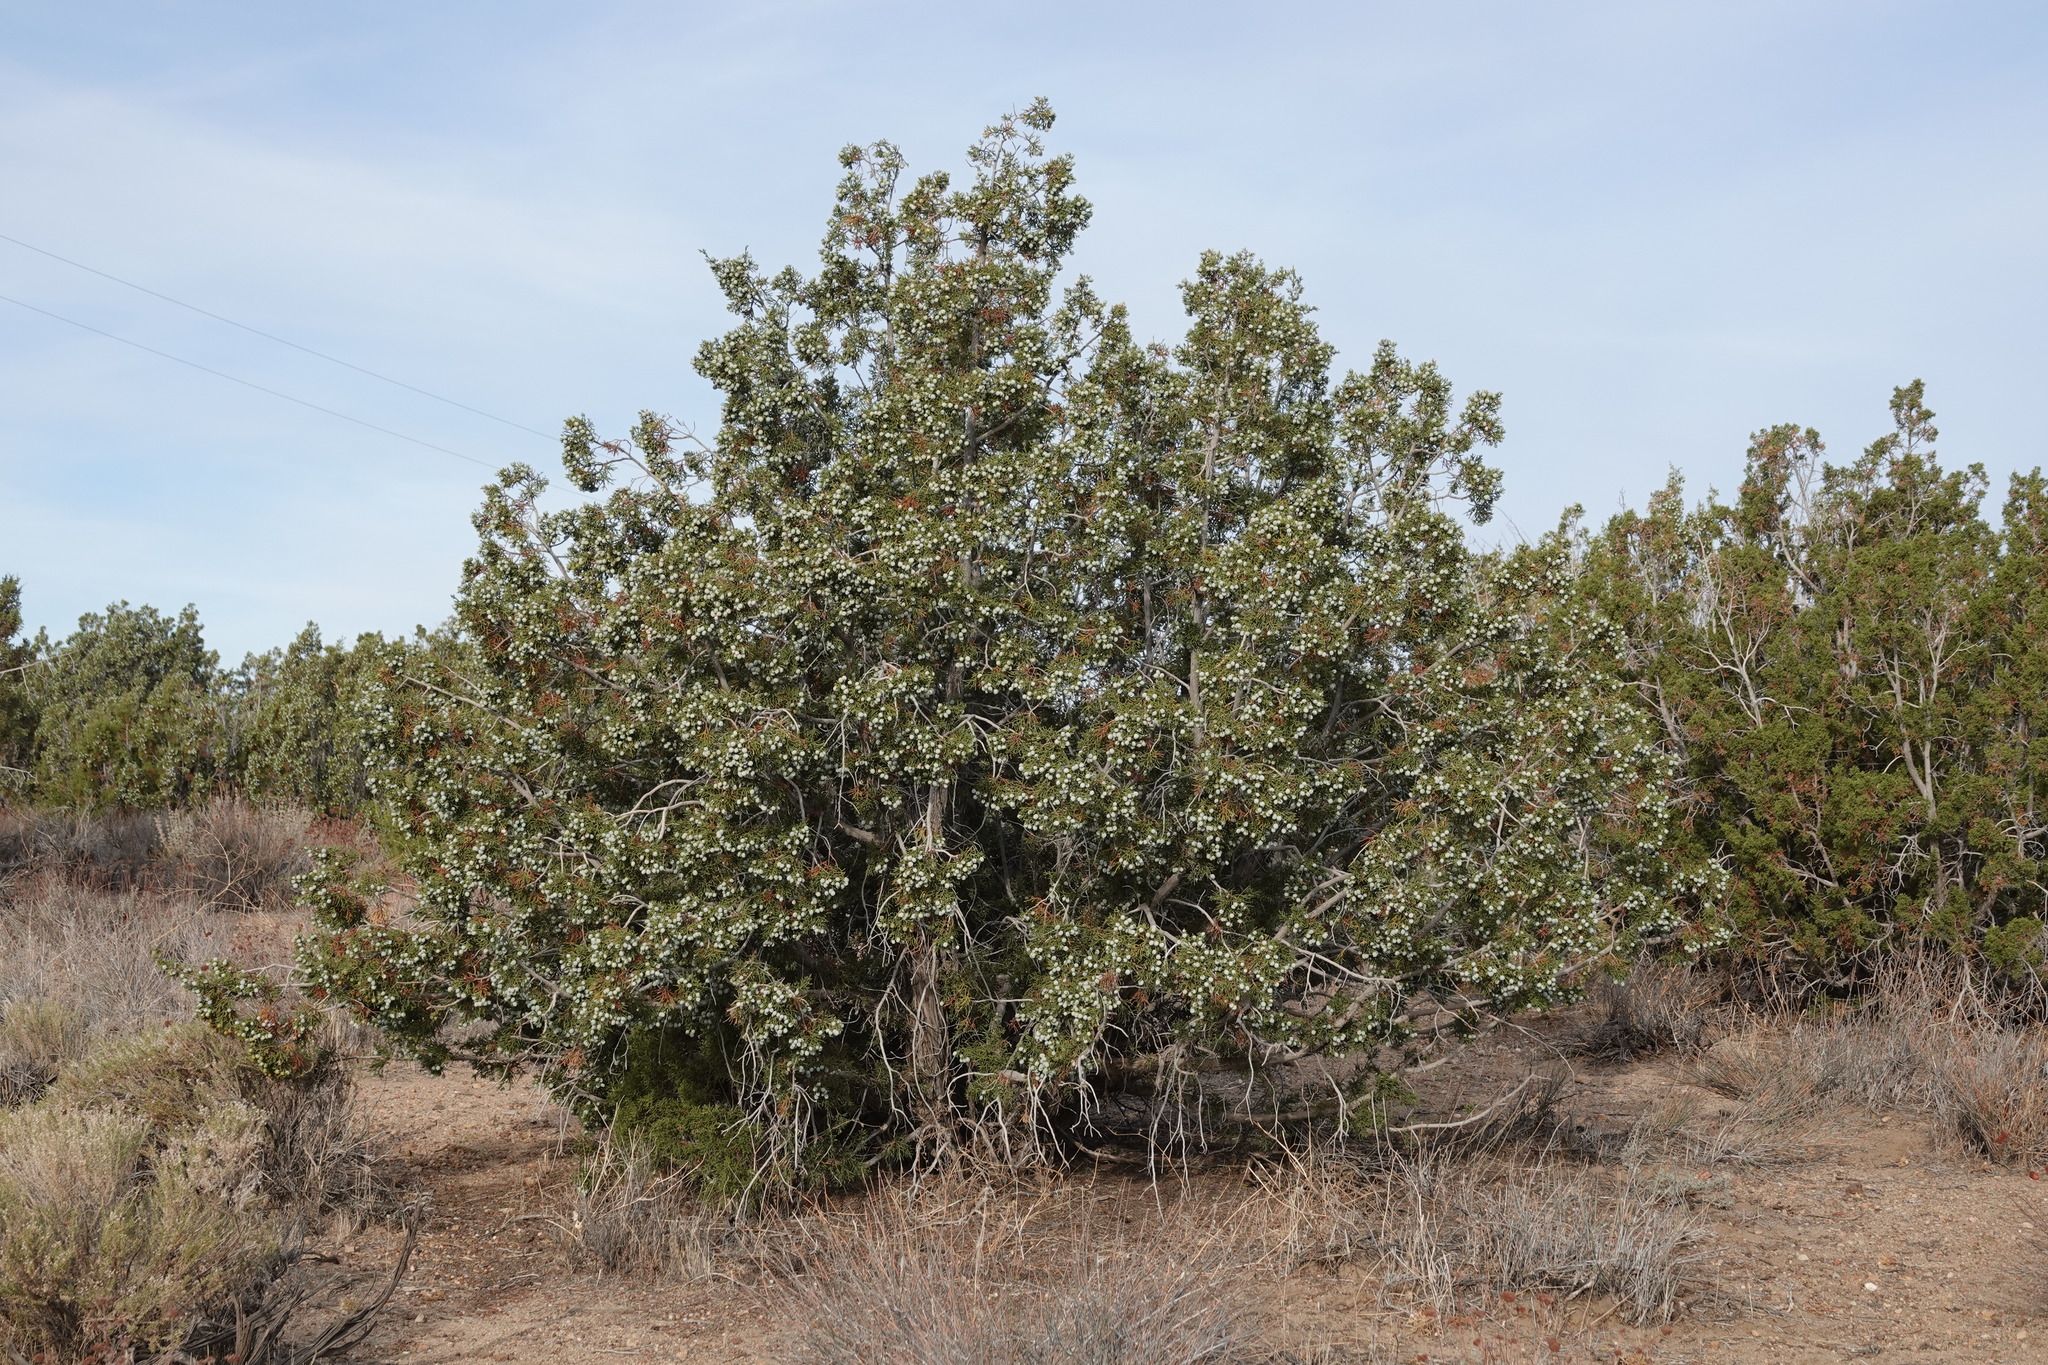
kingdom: Plantae
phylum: Tracheophyta
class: Pinopsida
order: Pinales
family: Cupressaceae
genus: Juniperus
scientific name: Juniperus californica
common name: California juniper
